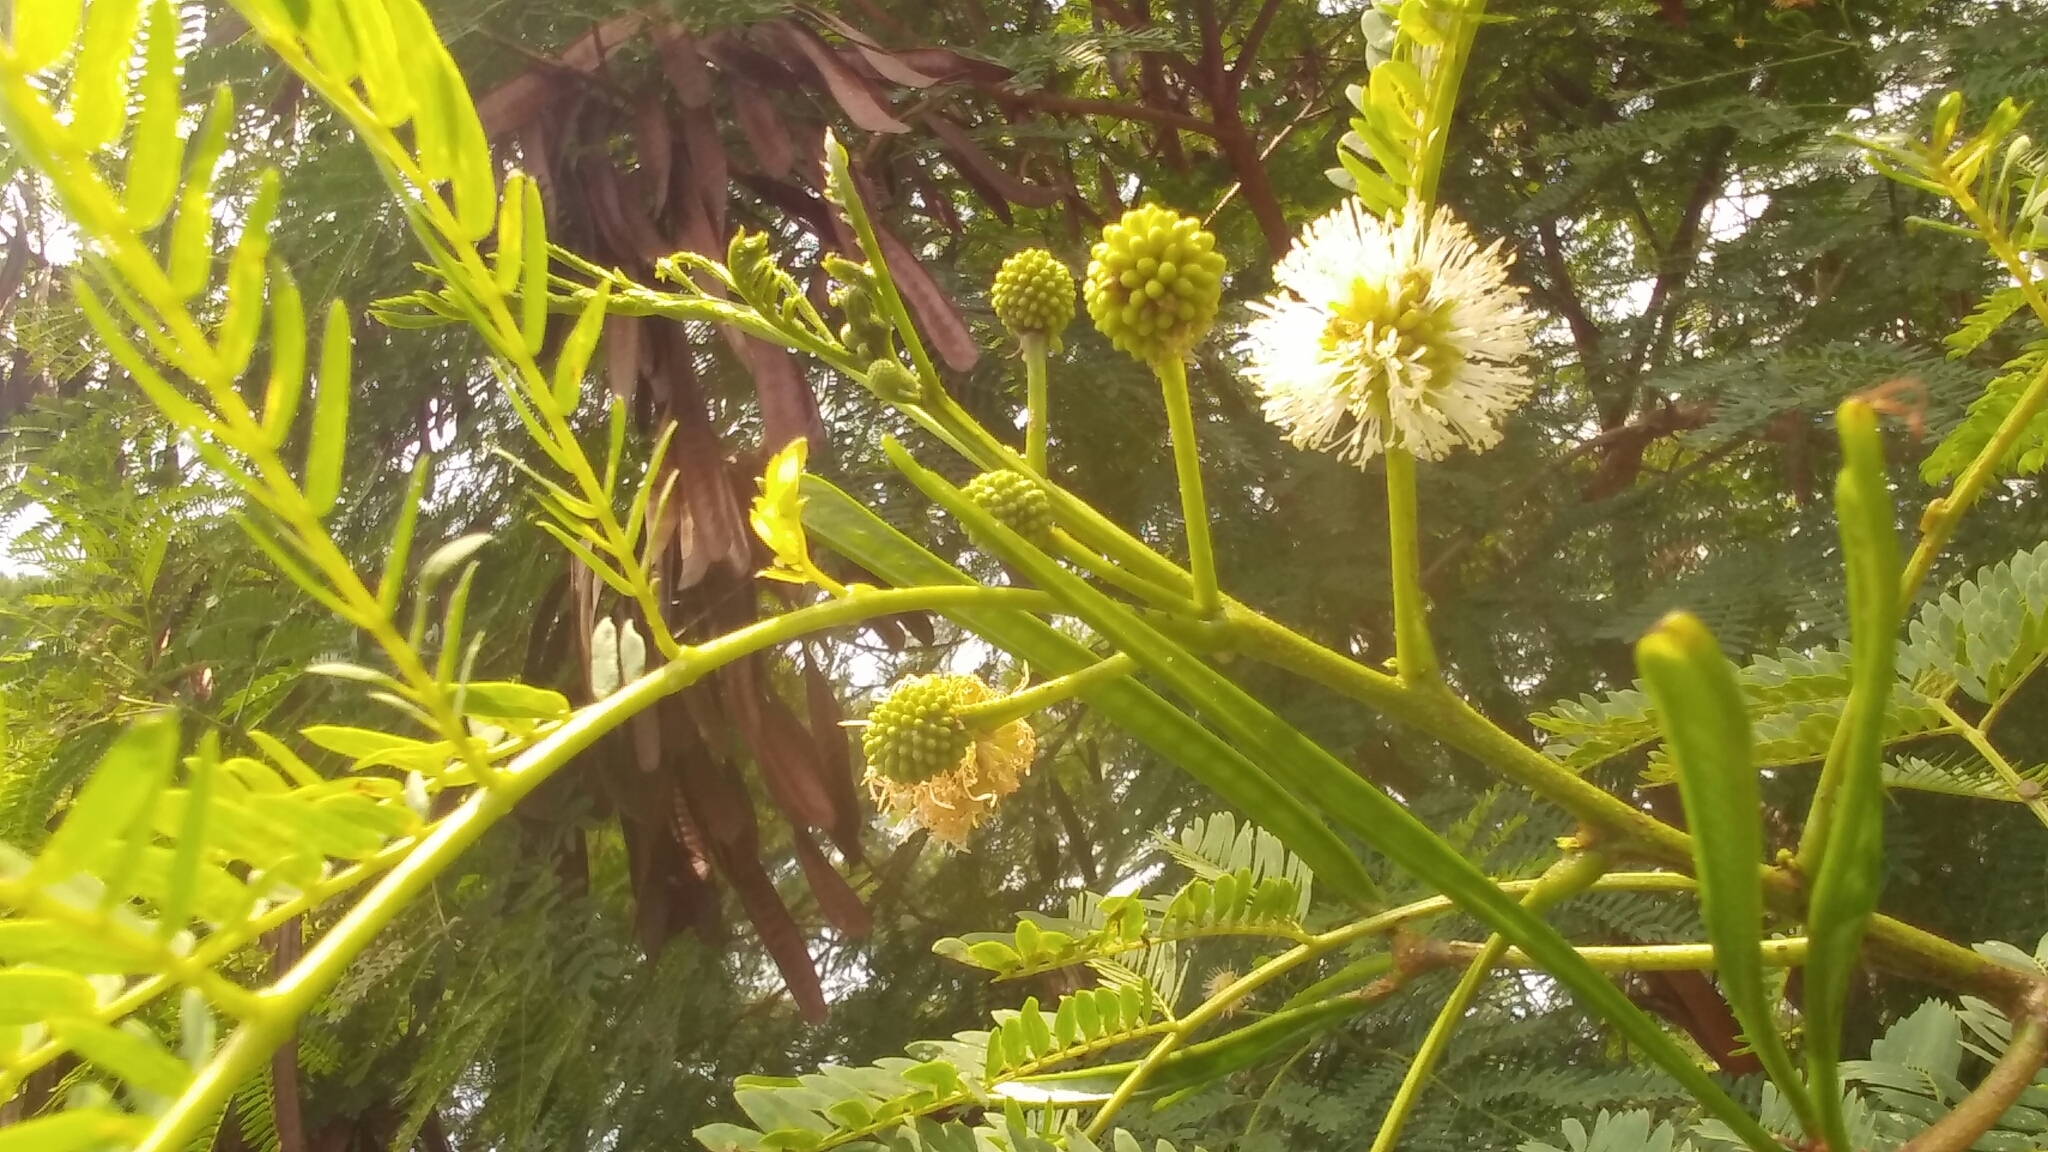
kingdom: Plantae
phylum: Tracheophyta
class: Magnoliopsida
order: Fabales
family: Fabaceae
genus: Leucaena
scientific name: Leucaena leucocephala
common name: White leadtree
